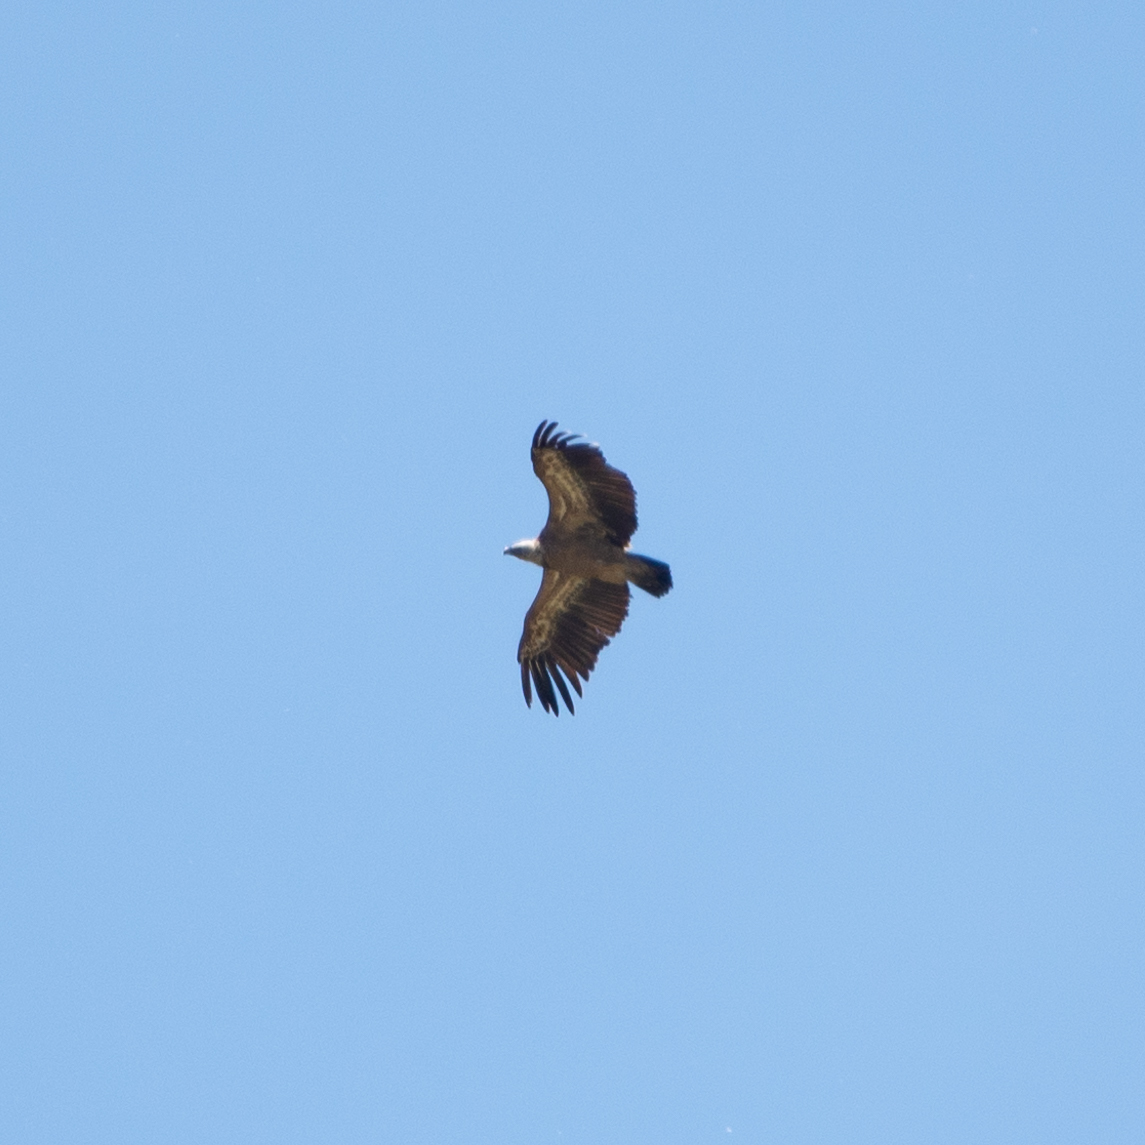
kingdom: Animalia
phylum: Chordata
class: Aves
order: Accipitriformes
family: Accipitridae
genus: Gyps
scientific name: Gyps fulvus
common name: Griffon vulture
